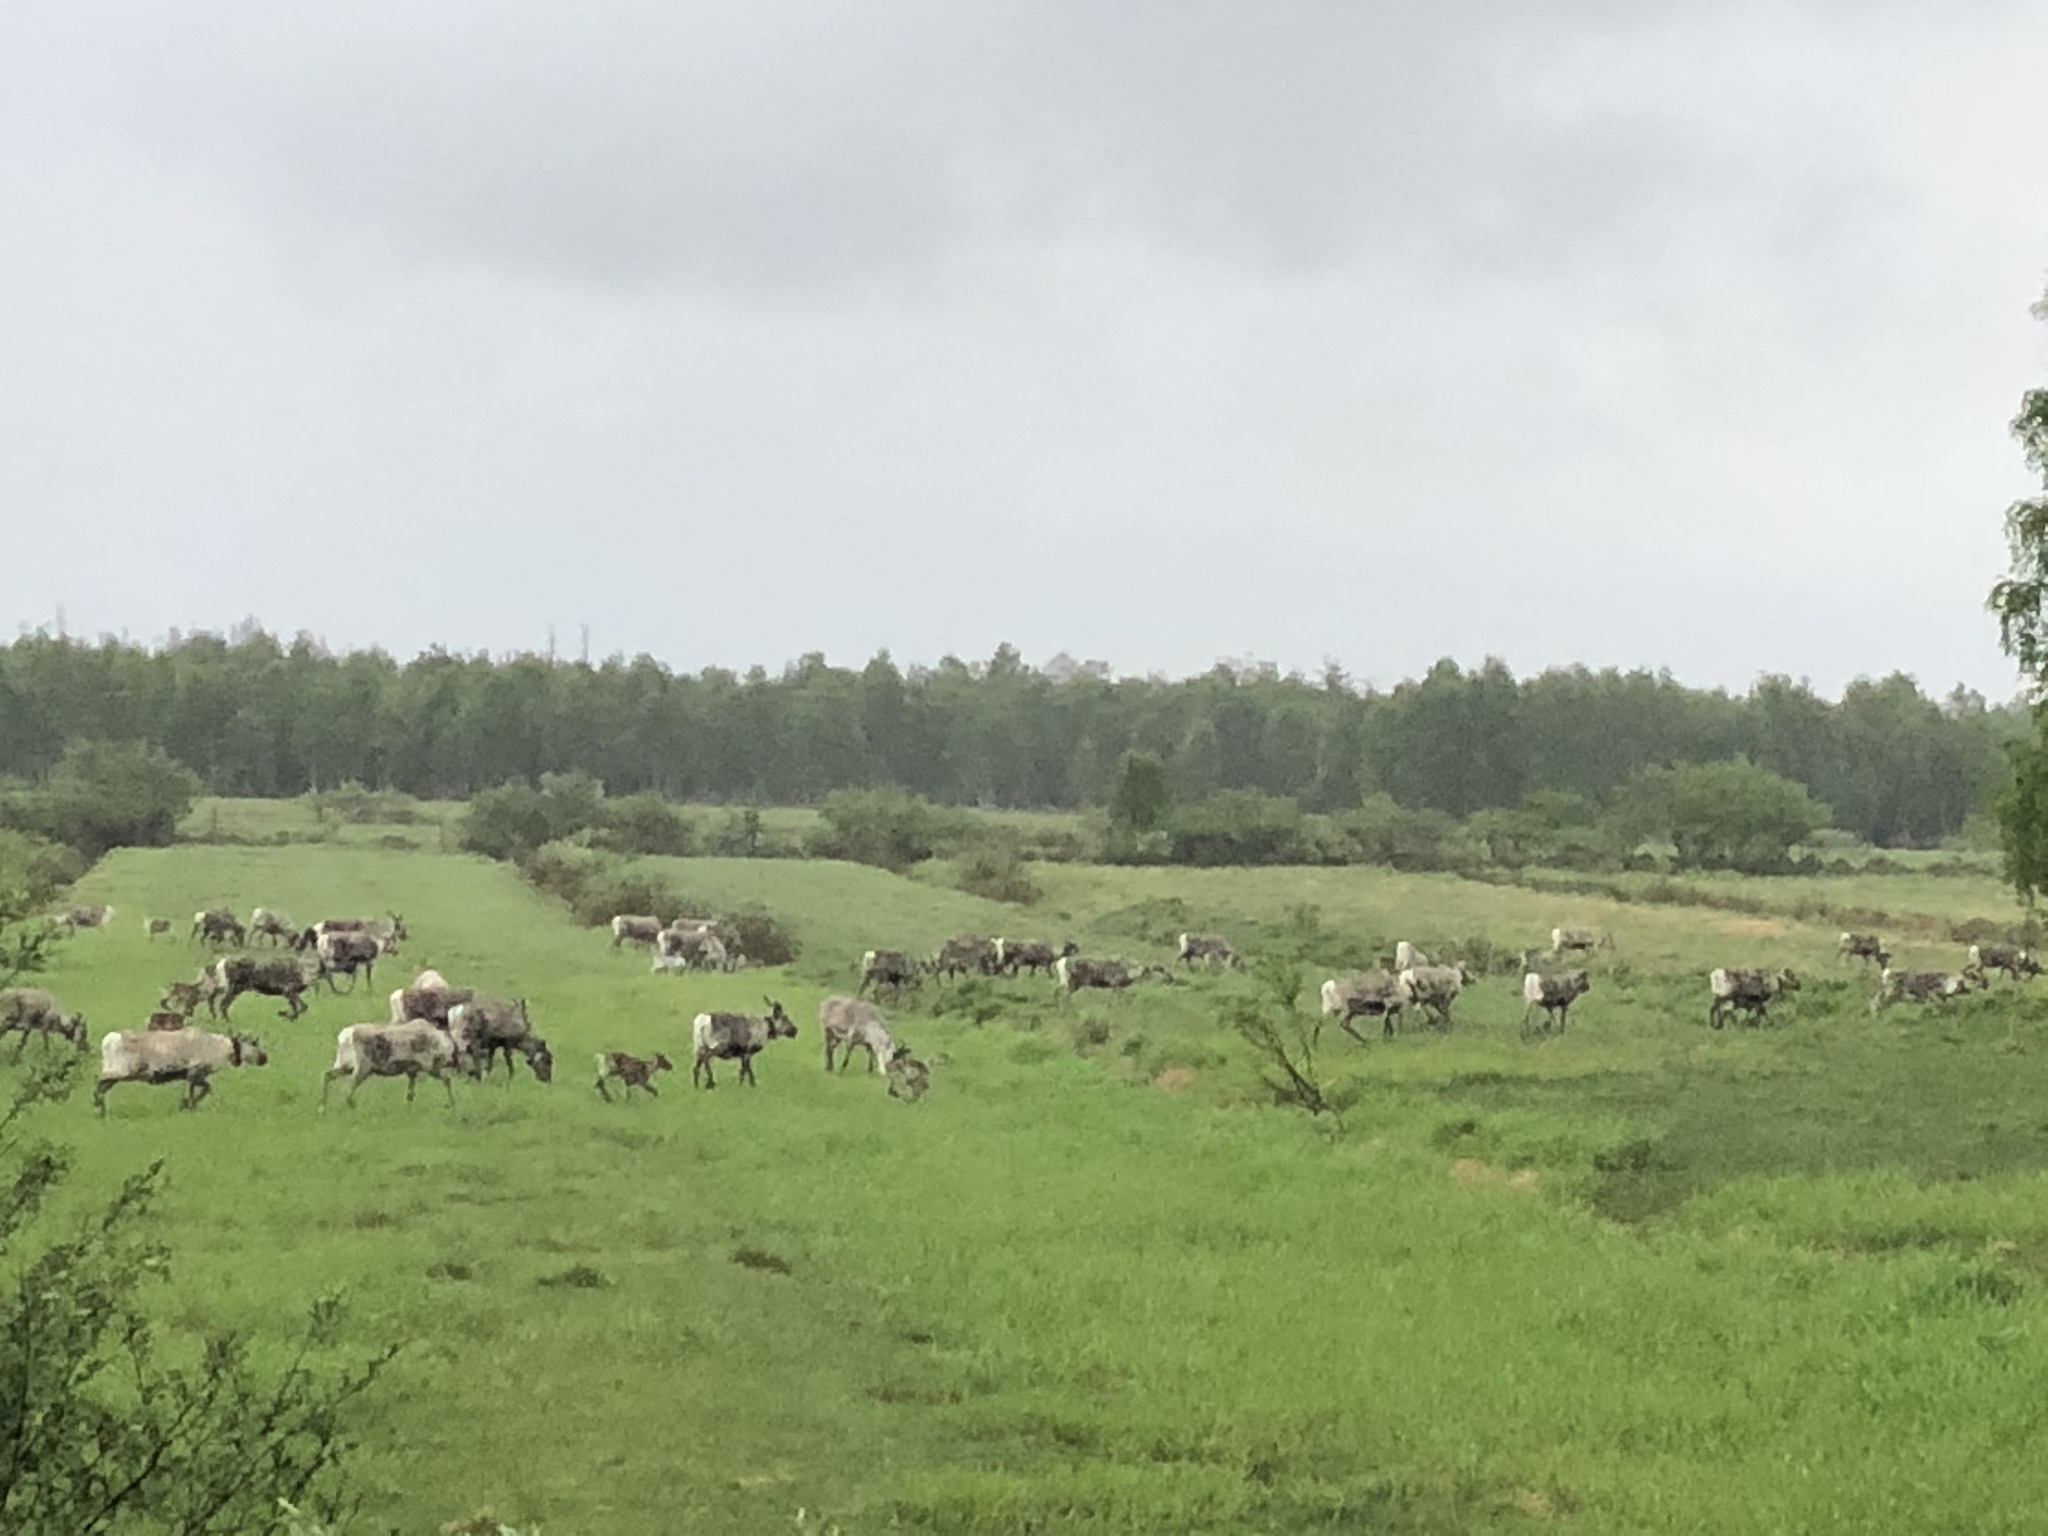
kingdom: Animalia
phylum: Chordata
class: Mammalia
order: Artiodactyla
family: Cervidae
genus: Rangifer
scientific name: Rangifer tarandus
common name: Reindeer
